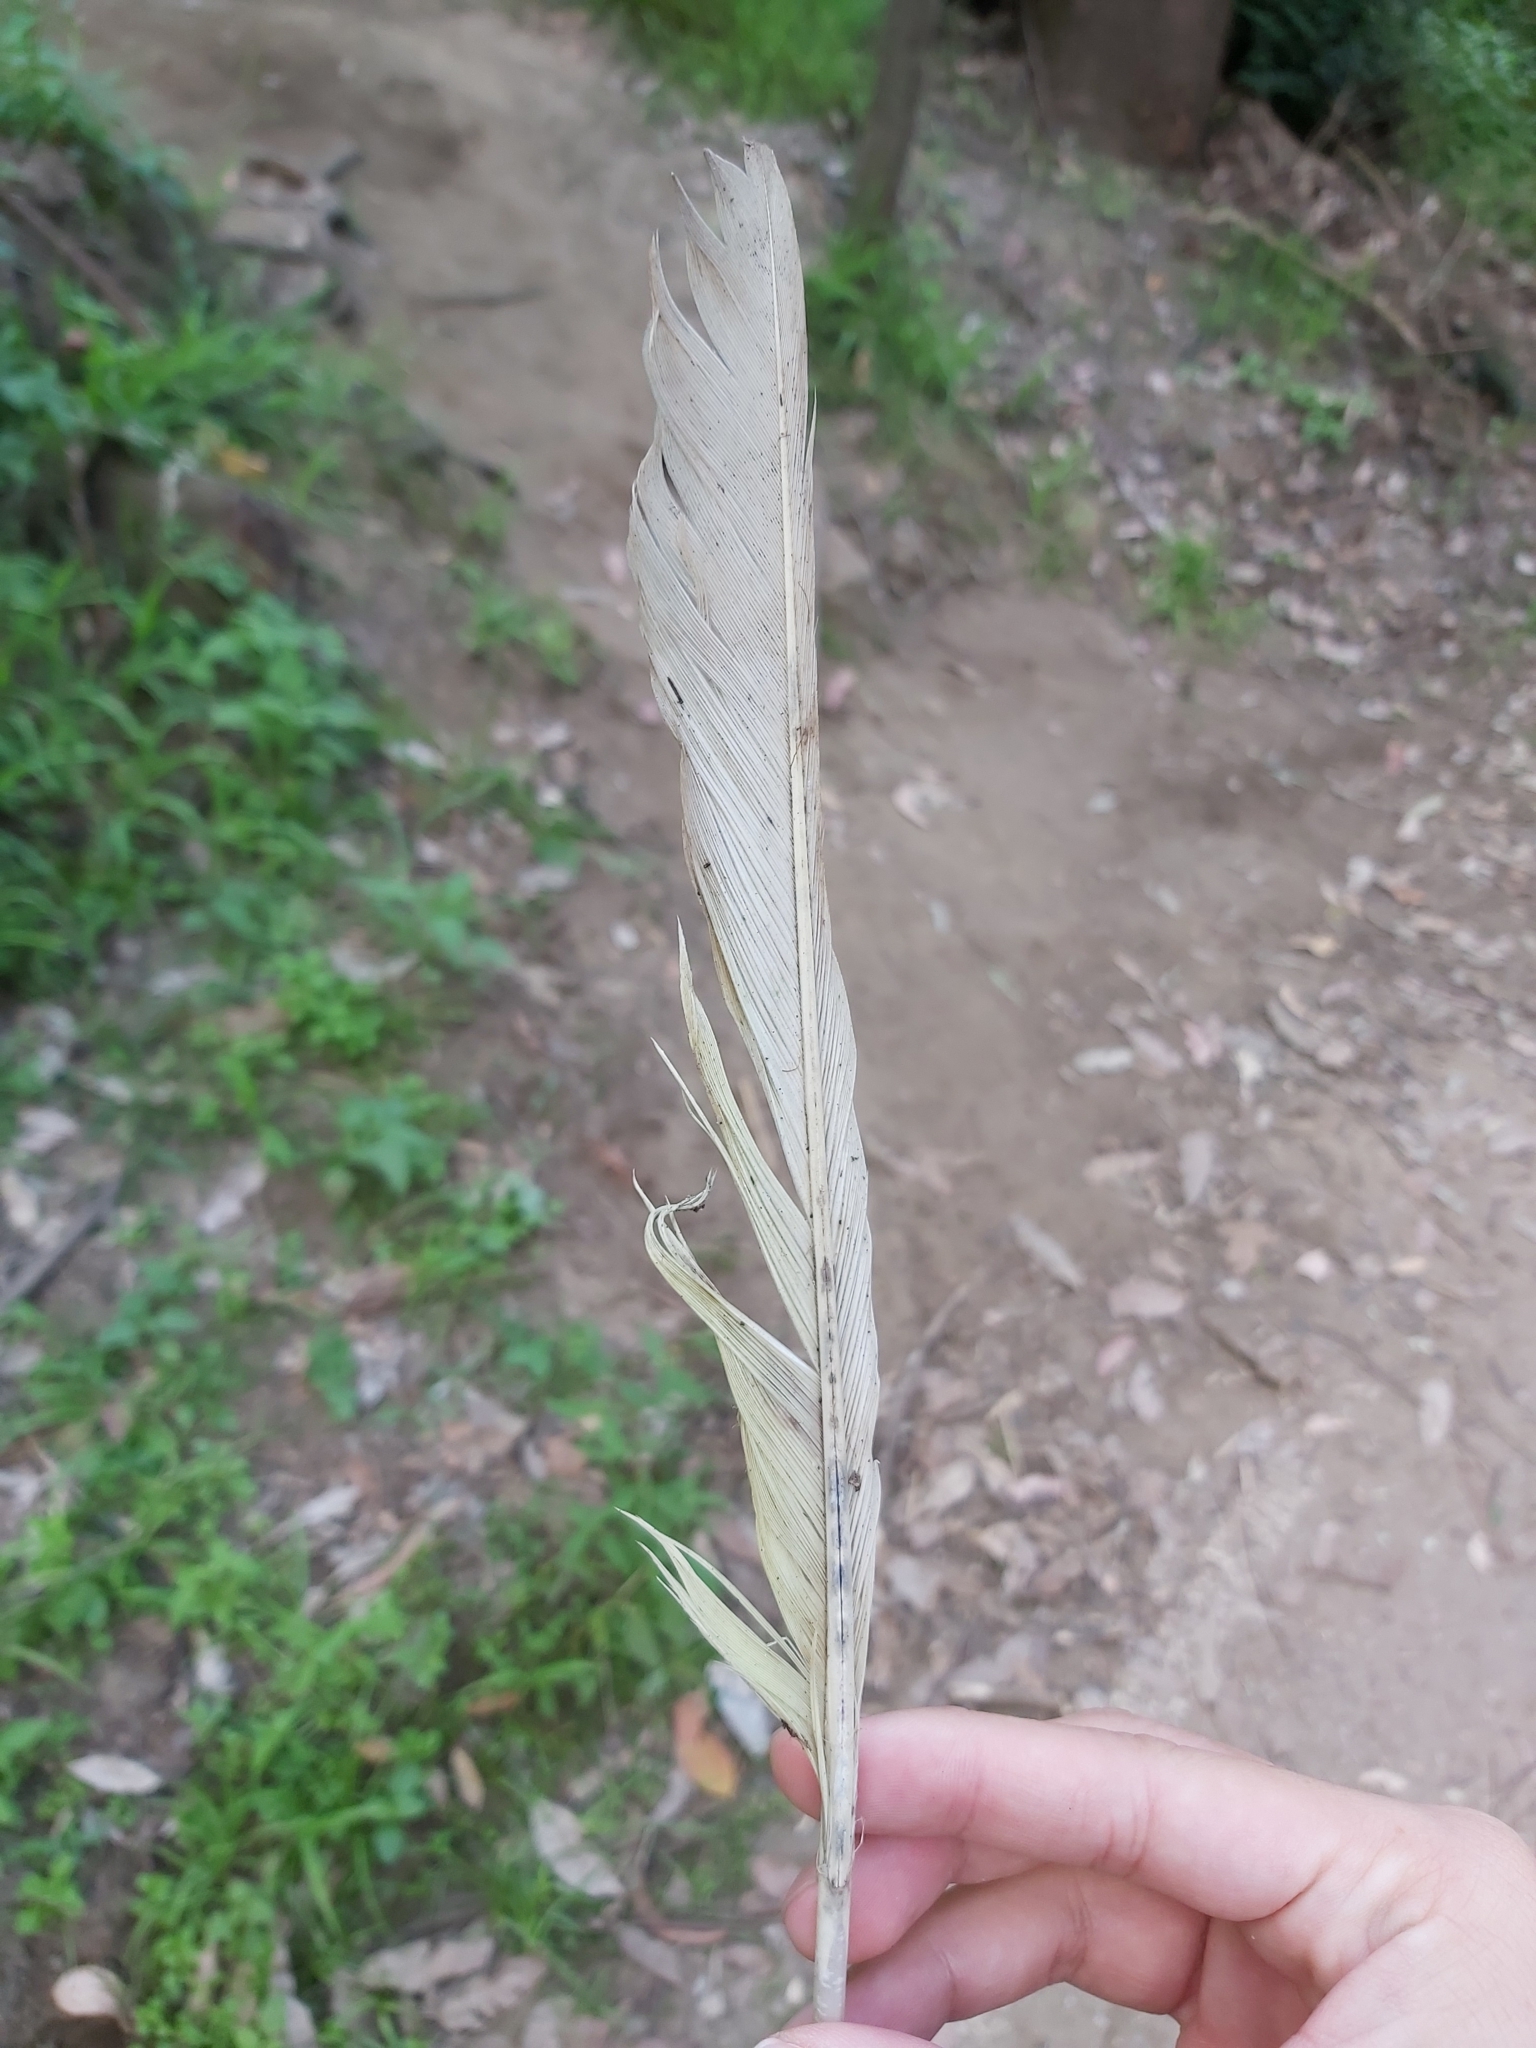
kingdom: Animalia
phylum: Chordata
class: Aves
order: Psittaciformes
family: Psittacidae
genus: Cacatua
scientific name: Cacatua galerita
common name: Sulphur-crested cockatoo
